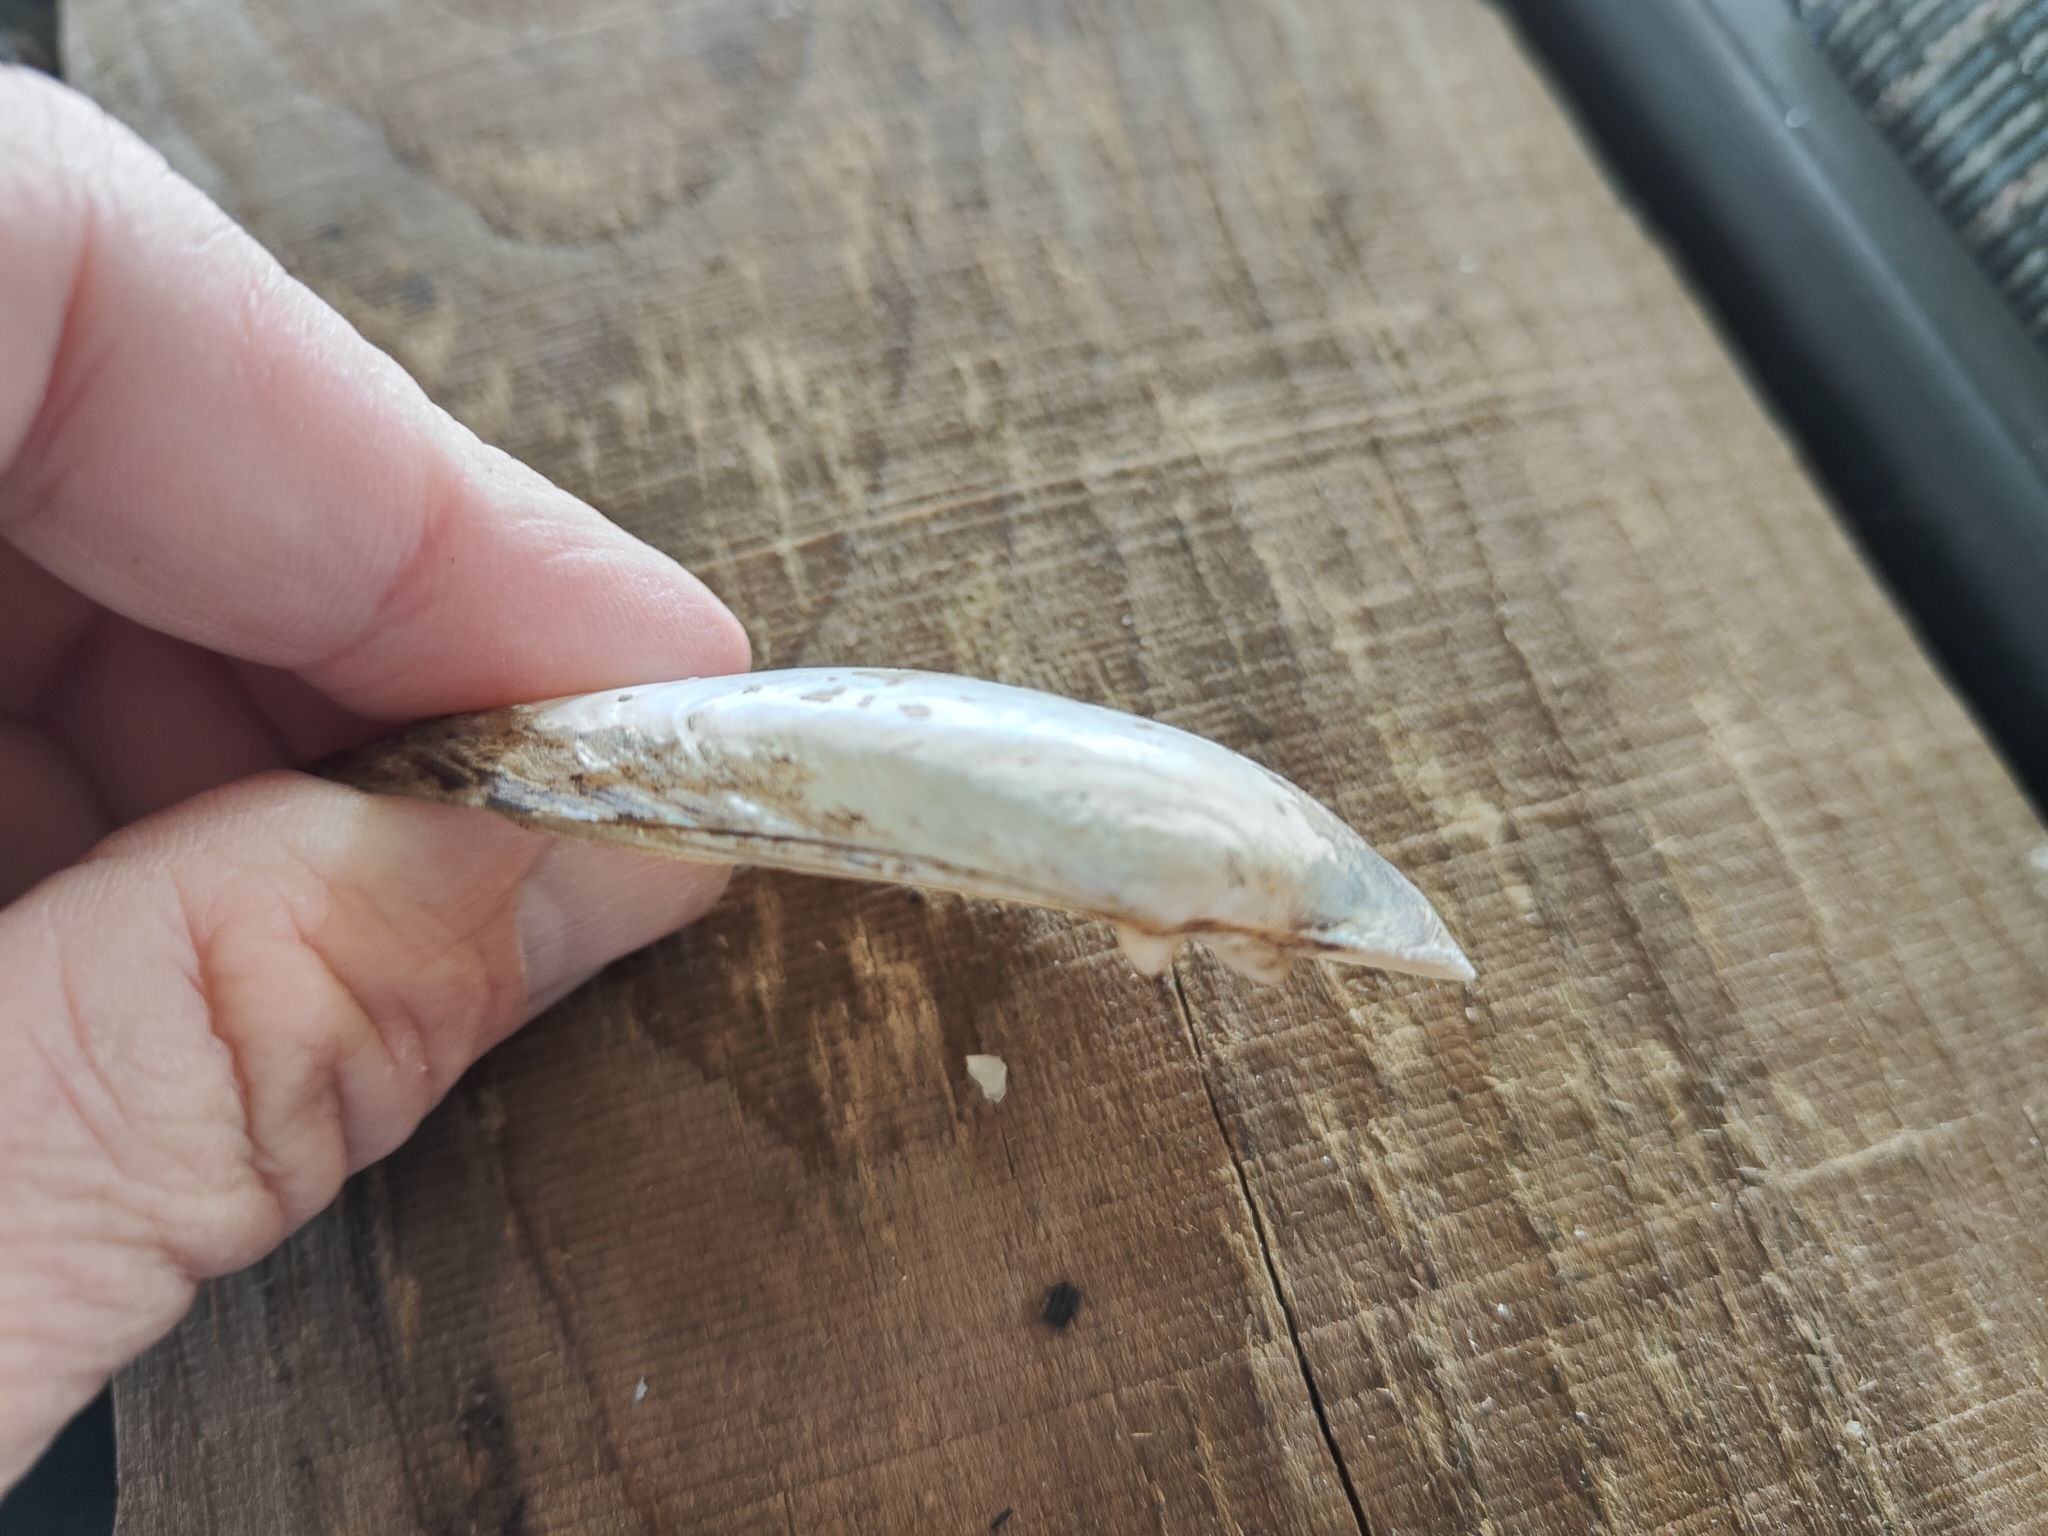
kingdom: Animalia
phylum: Mollusca
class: Bivalvia
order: Unionida
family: Unionidae
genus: Lampsilis
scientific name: Lampsilis teres
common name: Yellow sandshell
